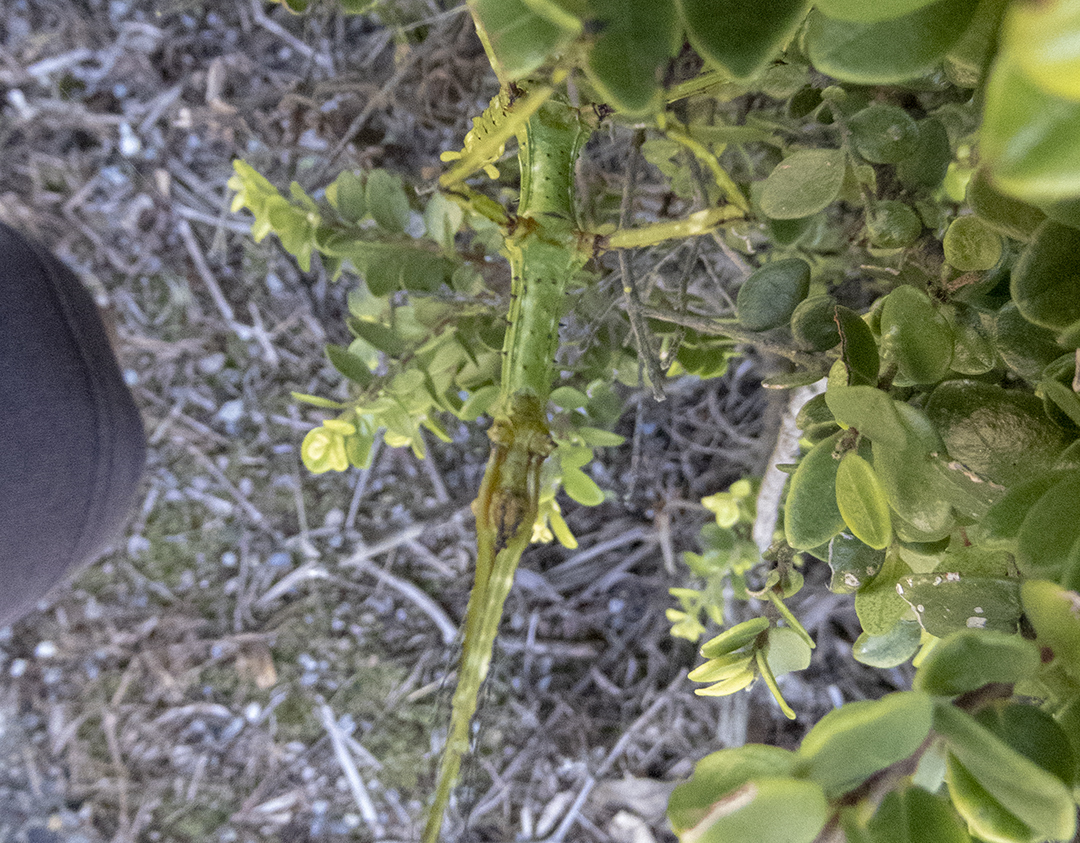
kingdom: Animalia
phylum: Arthropoda
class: Insecta
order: Phasmida
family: Phasmatidae
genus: Acanthoxyla
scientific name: Acanthoxyla prasina
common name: Black-spined stick insect
